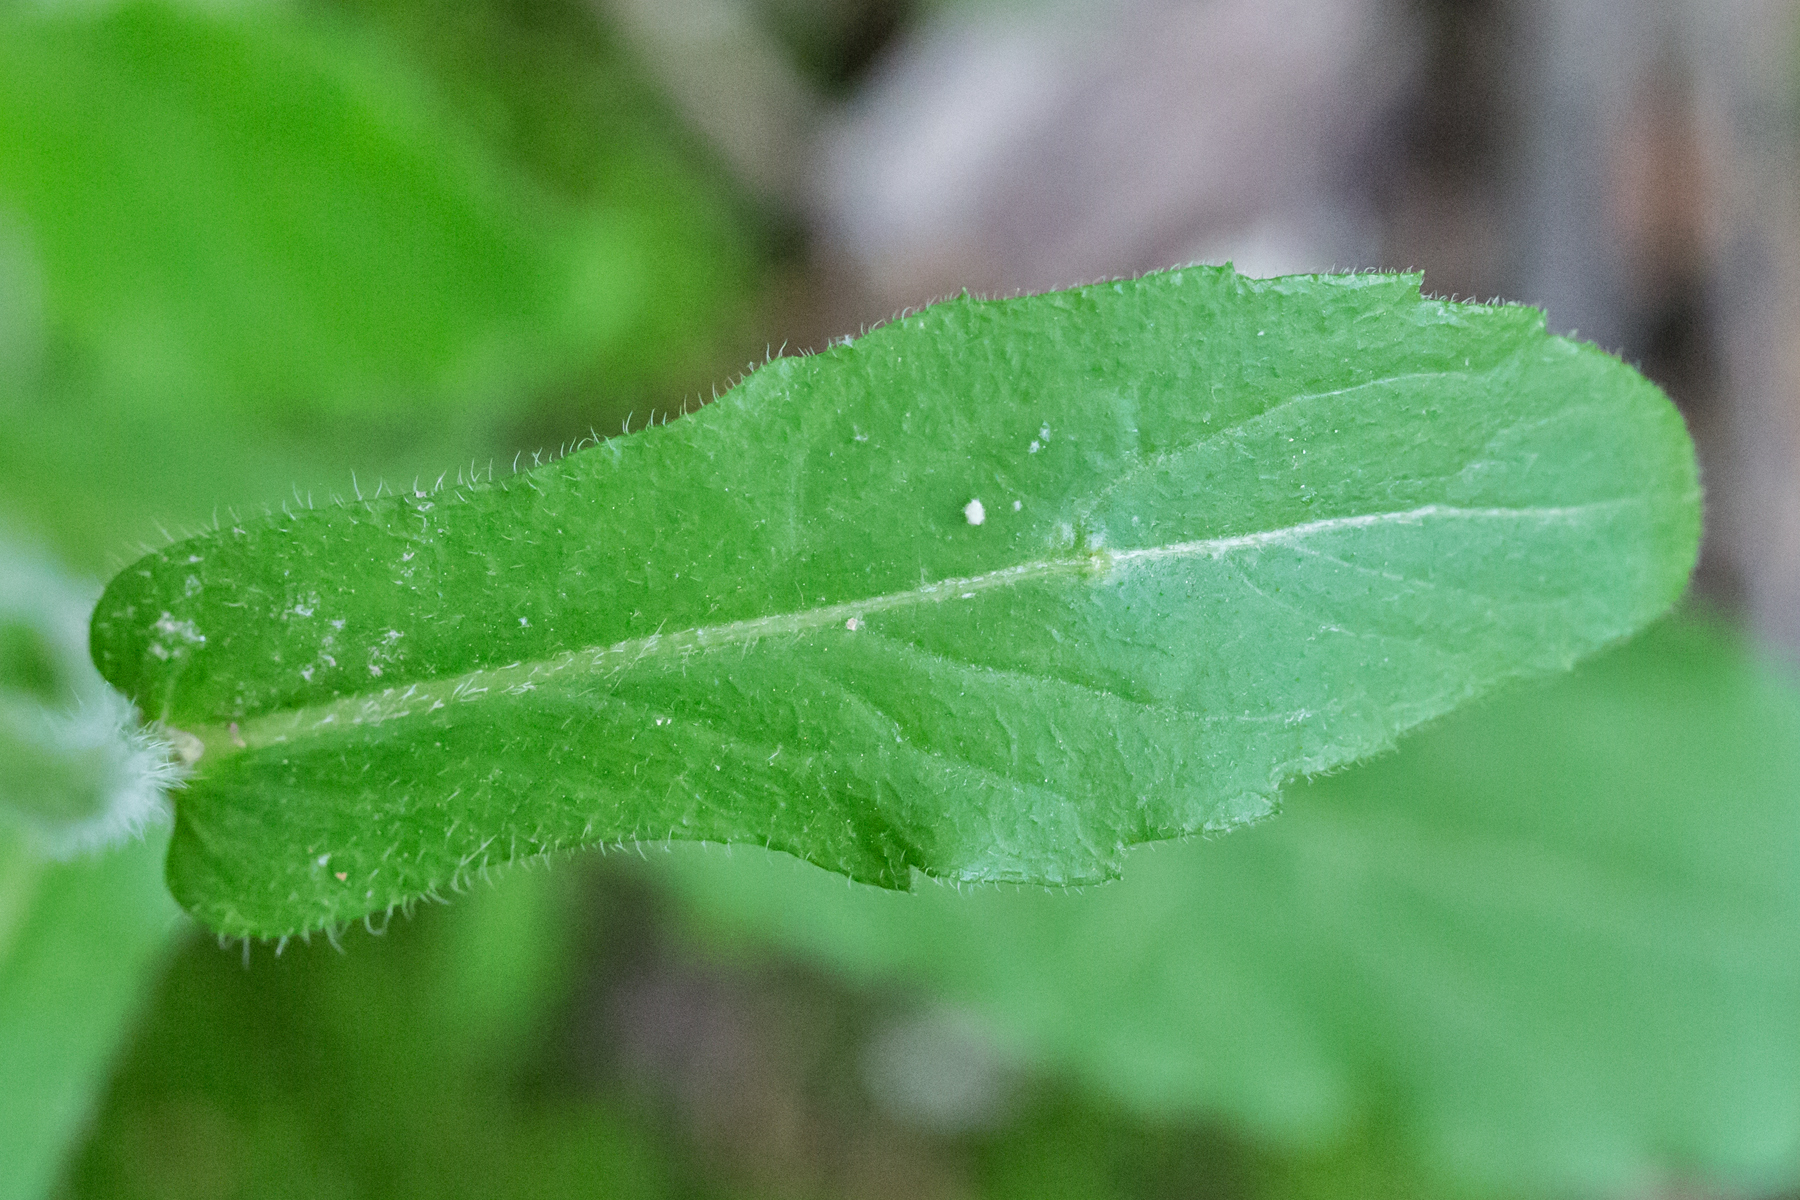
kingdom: Plantae
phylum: Tracheophyta
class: Magnoliopsida
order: Asterales
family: Asteraceae
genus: Erigeron
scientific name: Erigeron philadelphicus
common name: Robin's-plantain
